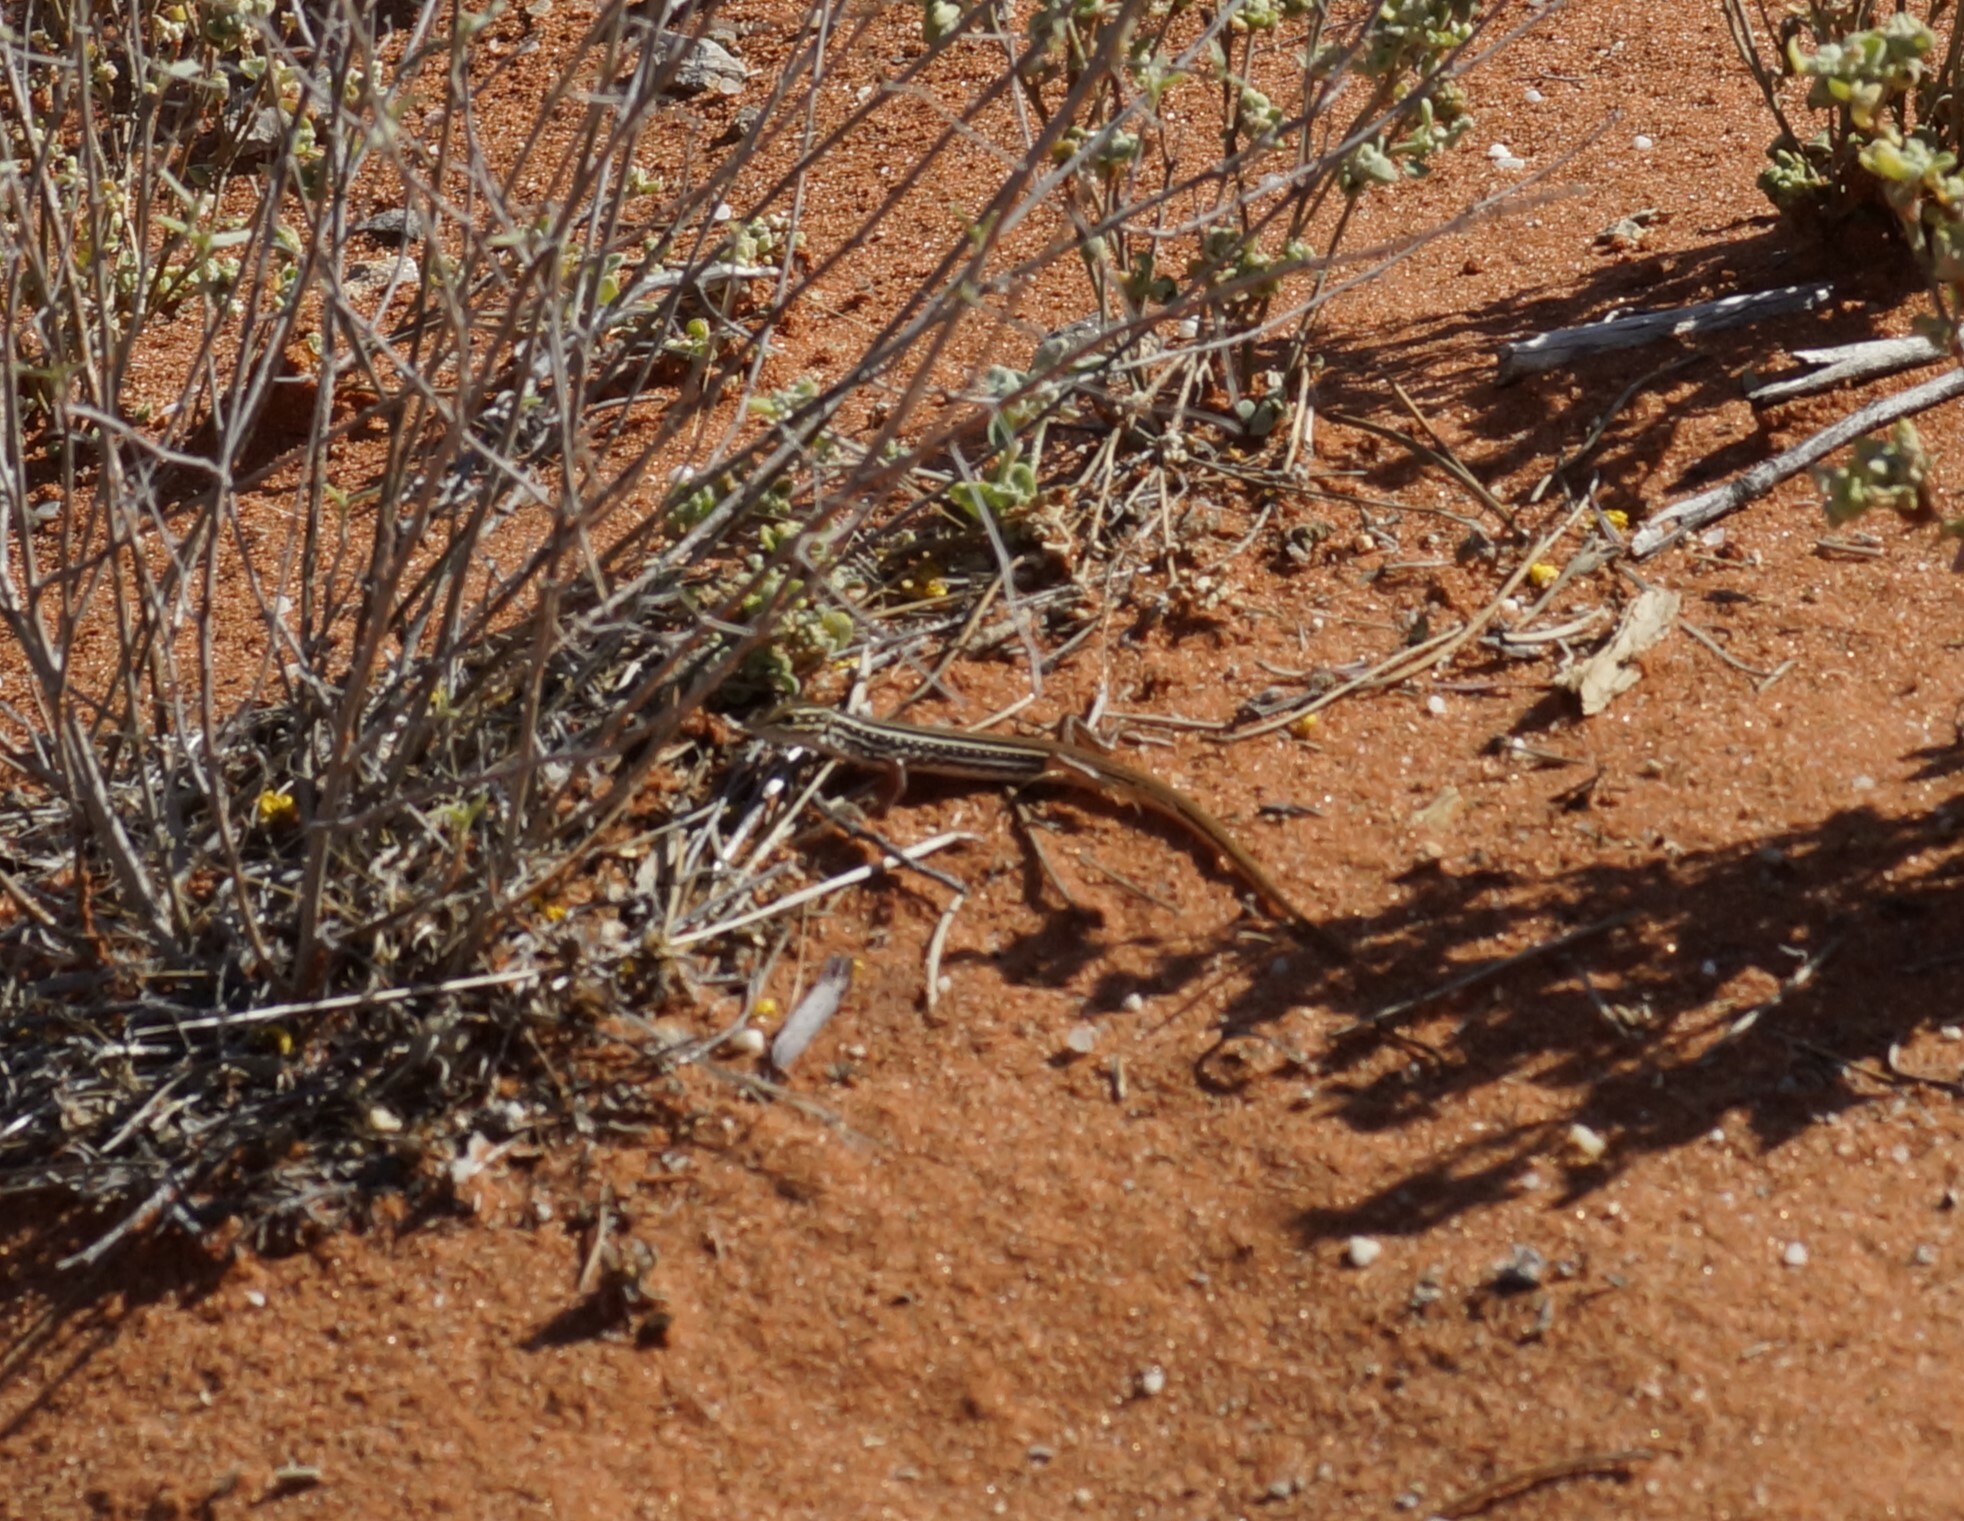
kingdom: Animalia
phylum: Chordata
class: Squamata
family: Scincidae
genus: Ctenotus
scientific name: Ctenotus regius
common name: Pale-rumped ctenotus
